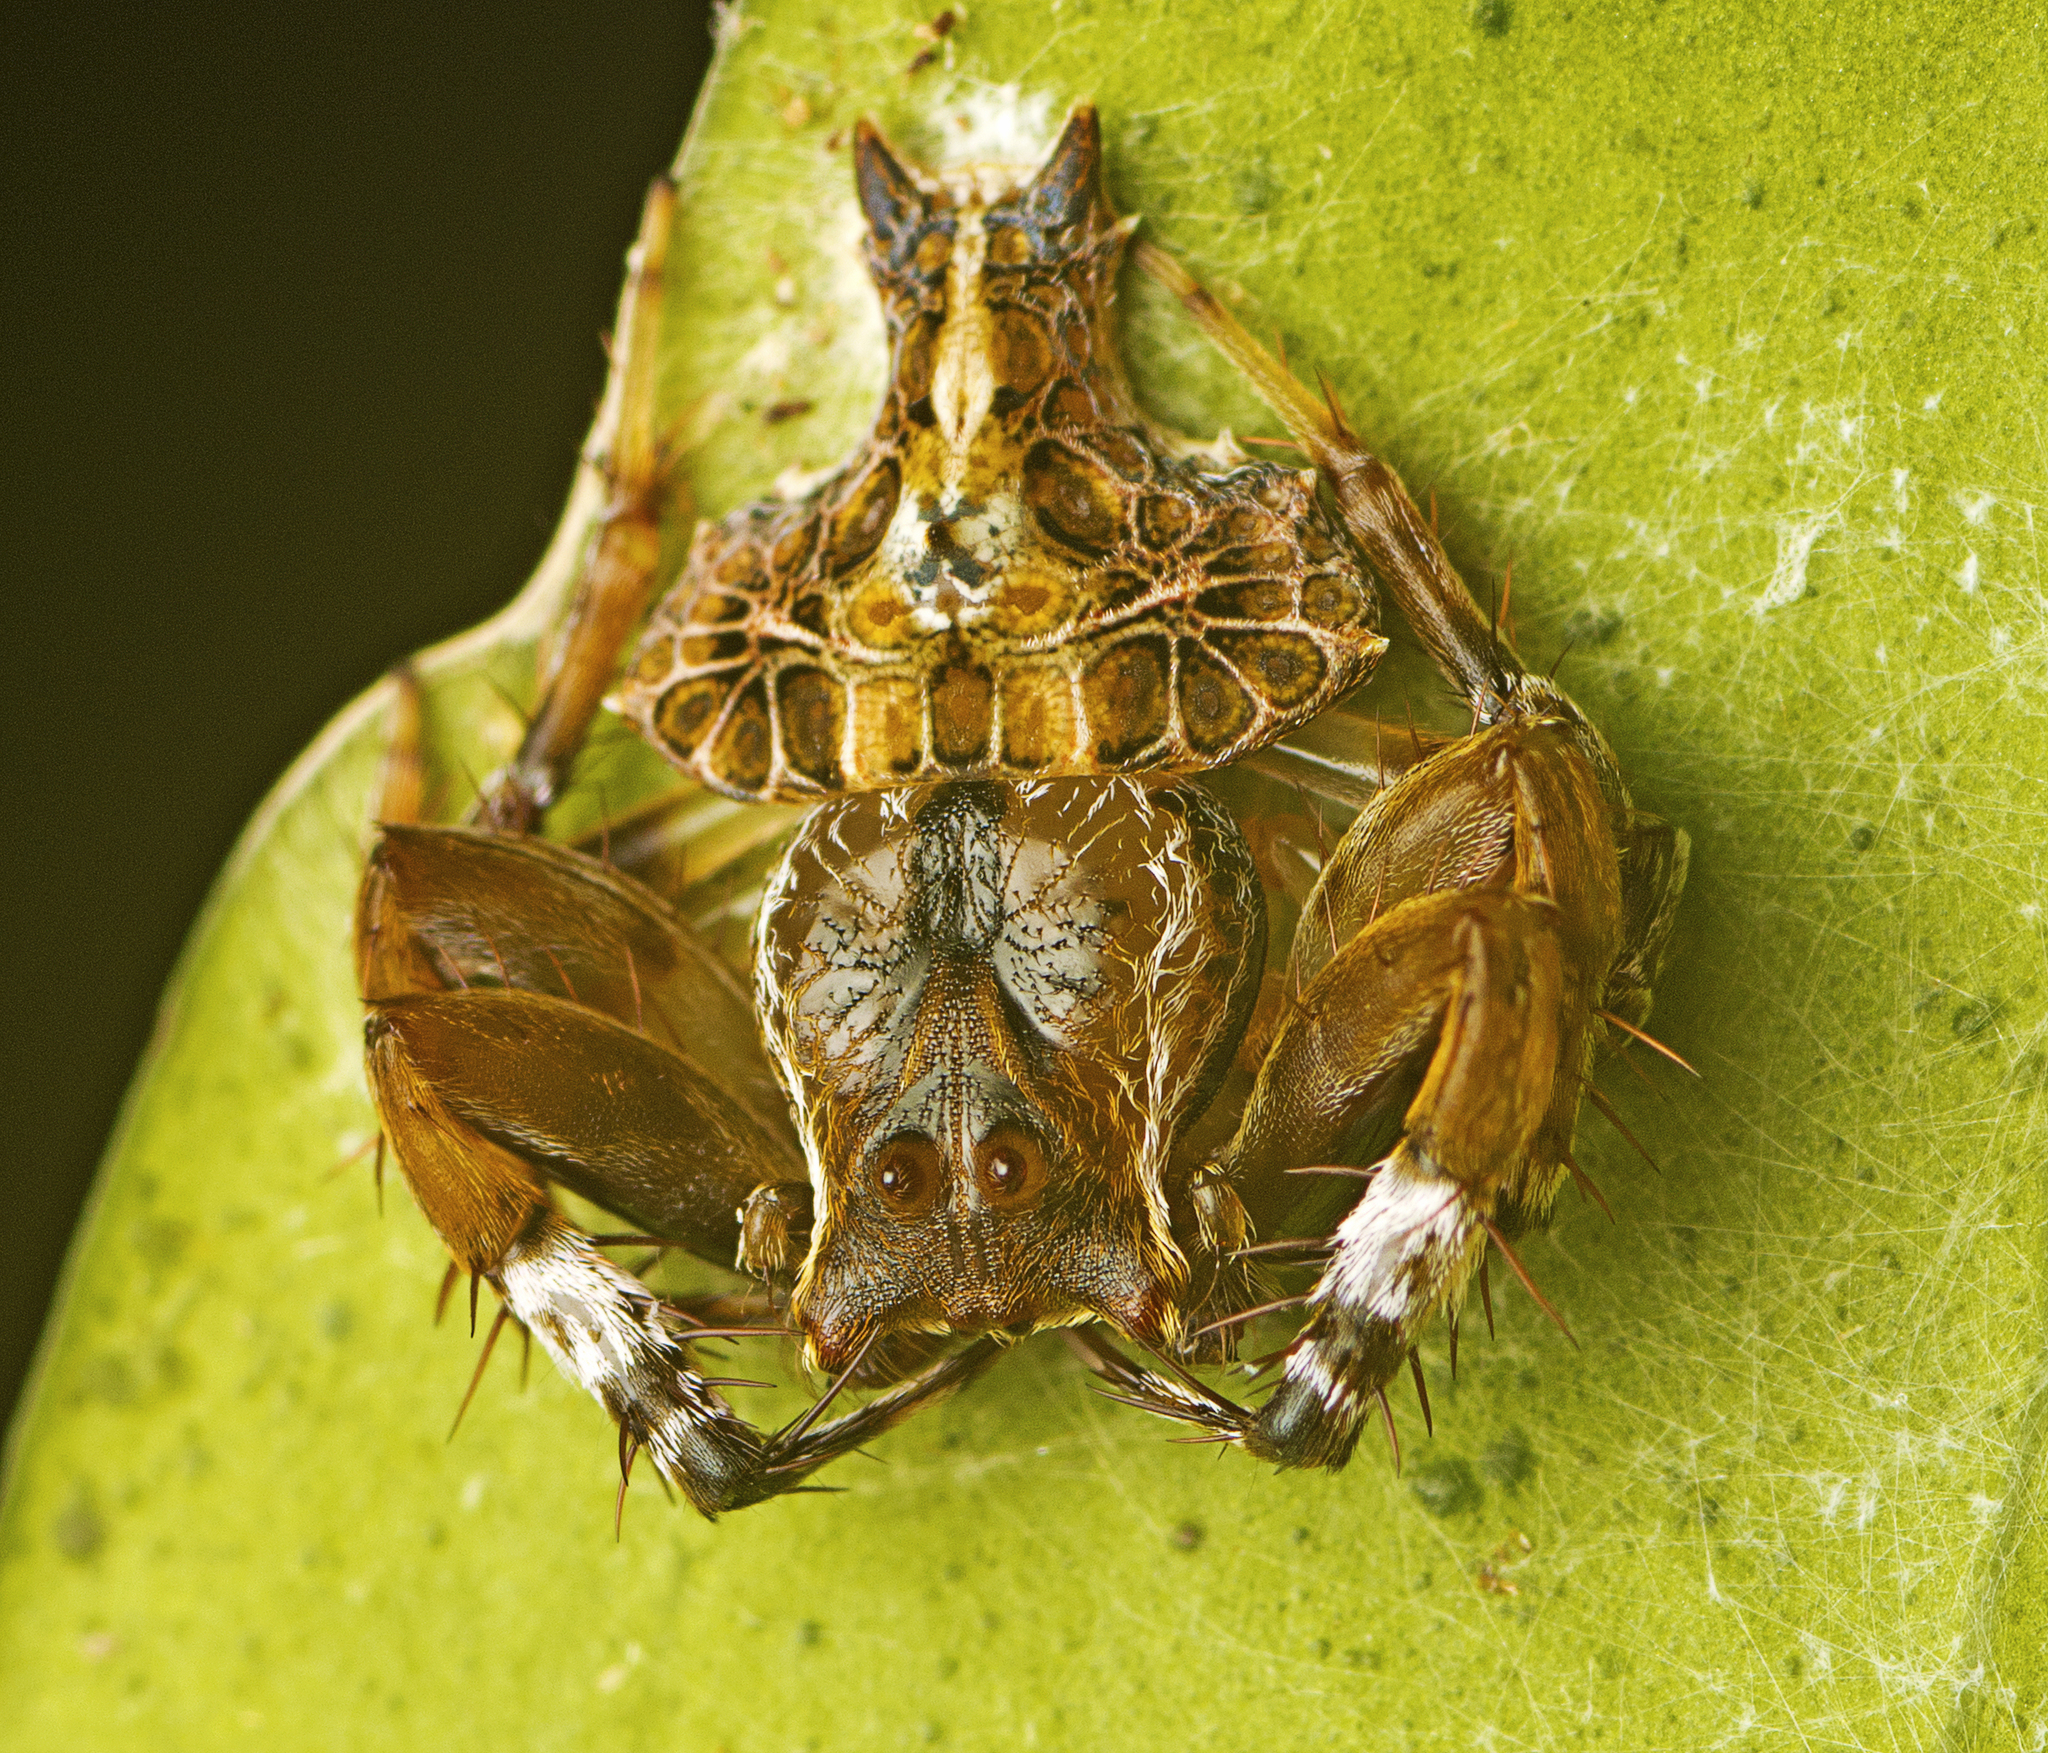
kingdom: Animalia
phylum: Arthropoda
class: Arachnida
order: Araneae
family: Arkyidae
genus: Arkys
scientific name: Arkys alatus
